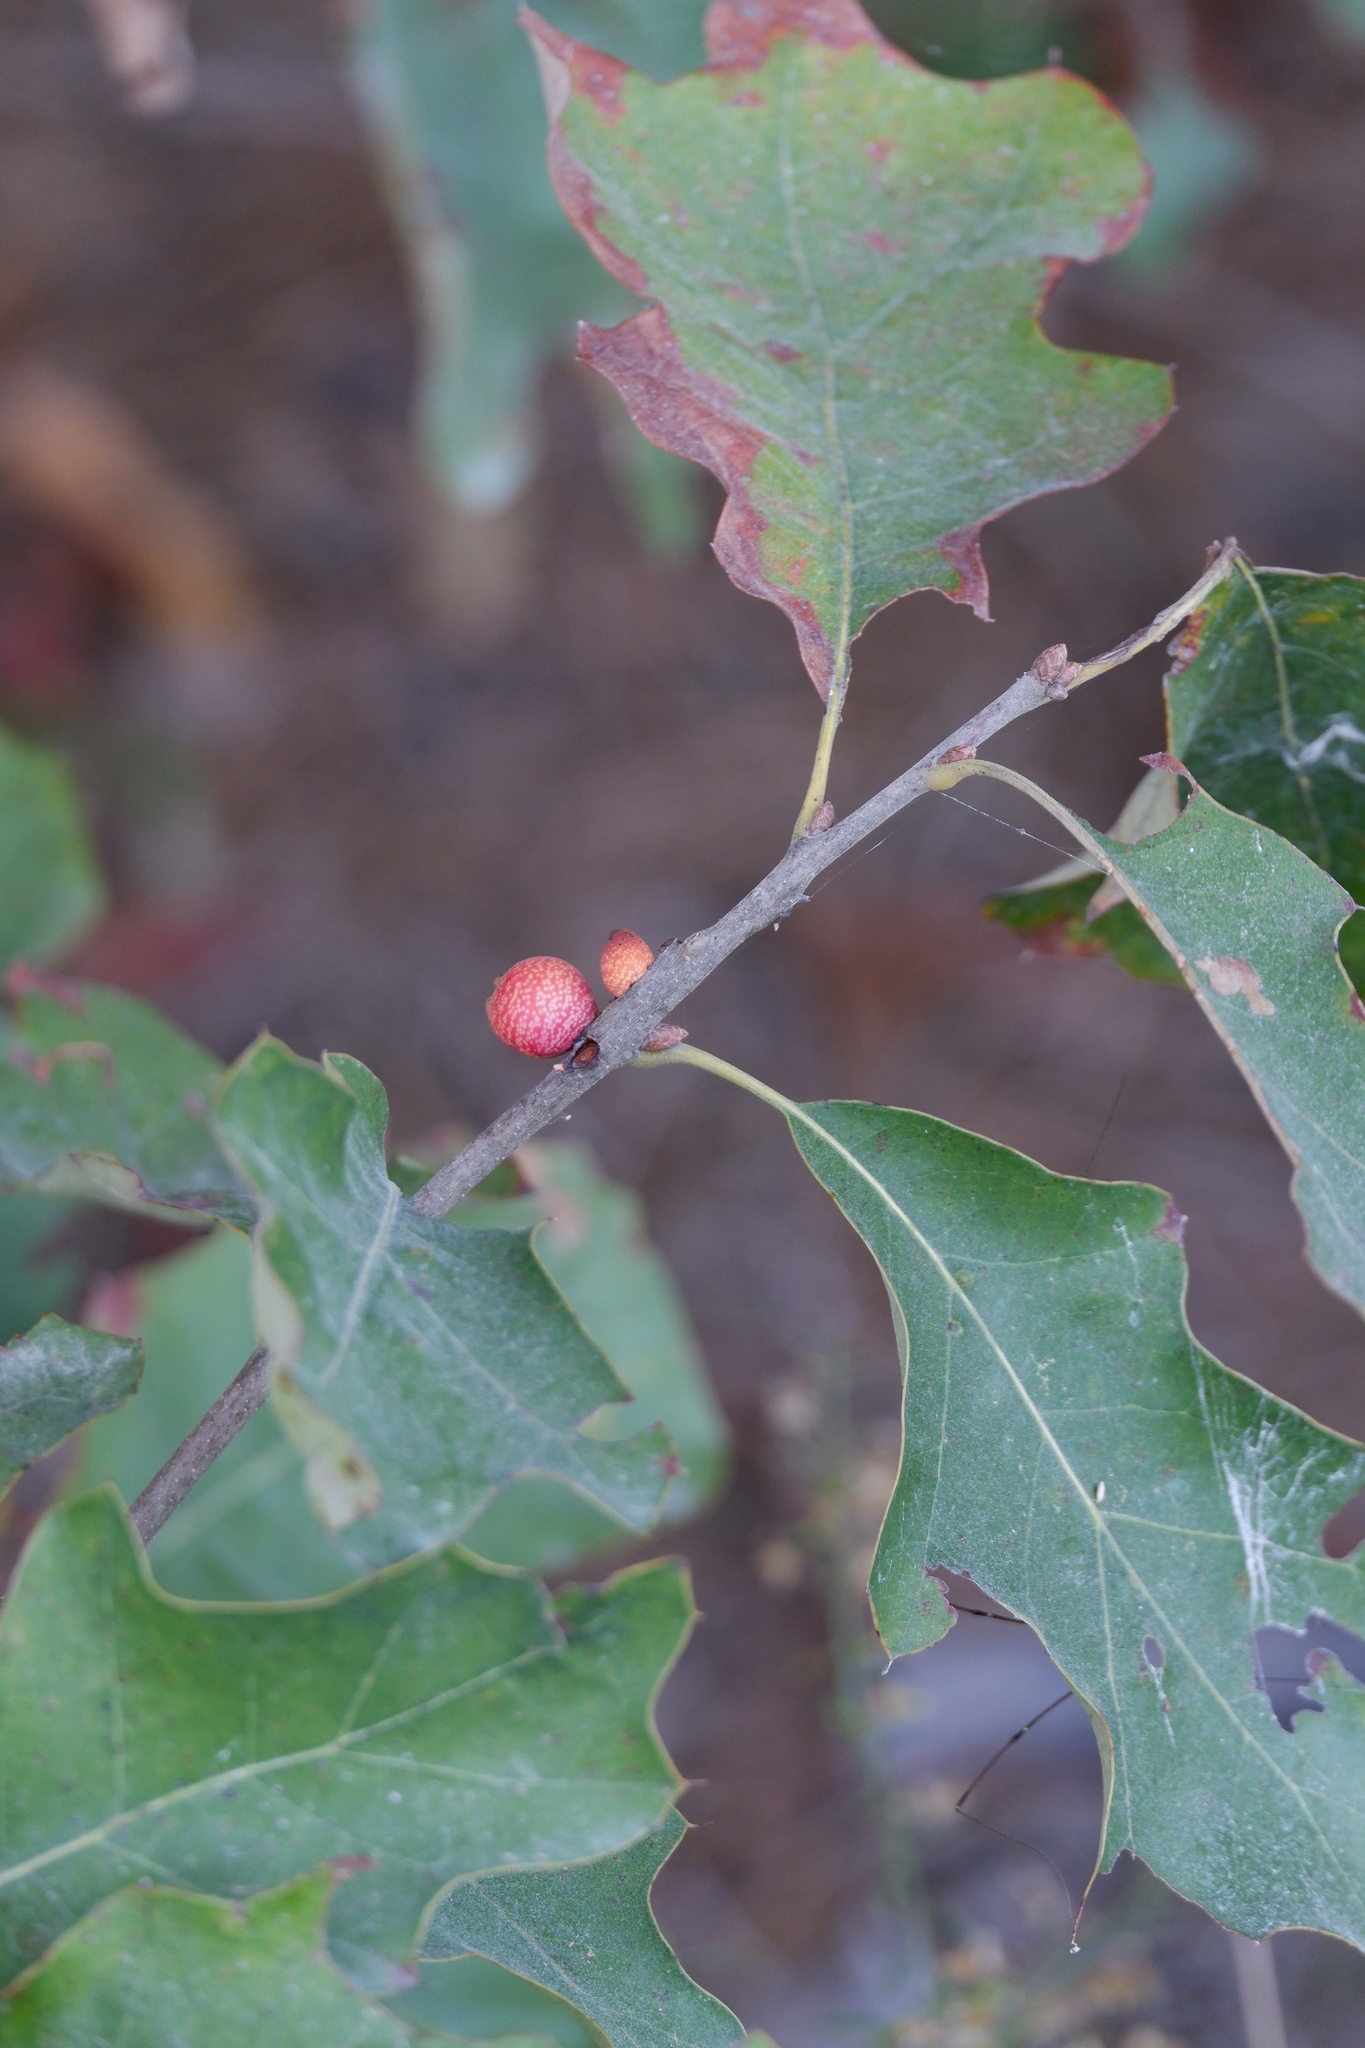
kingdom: Animalia
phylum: Arthropoda
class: Insecta
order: Hymenoptera
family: Cynipidae
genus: Kokkocynips
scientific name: Kokkocynips imbricariae
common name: Banded bullet gall wasp
